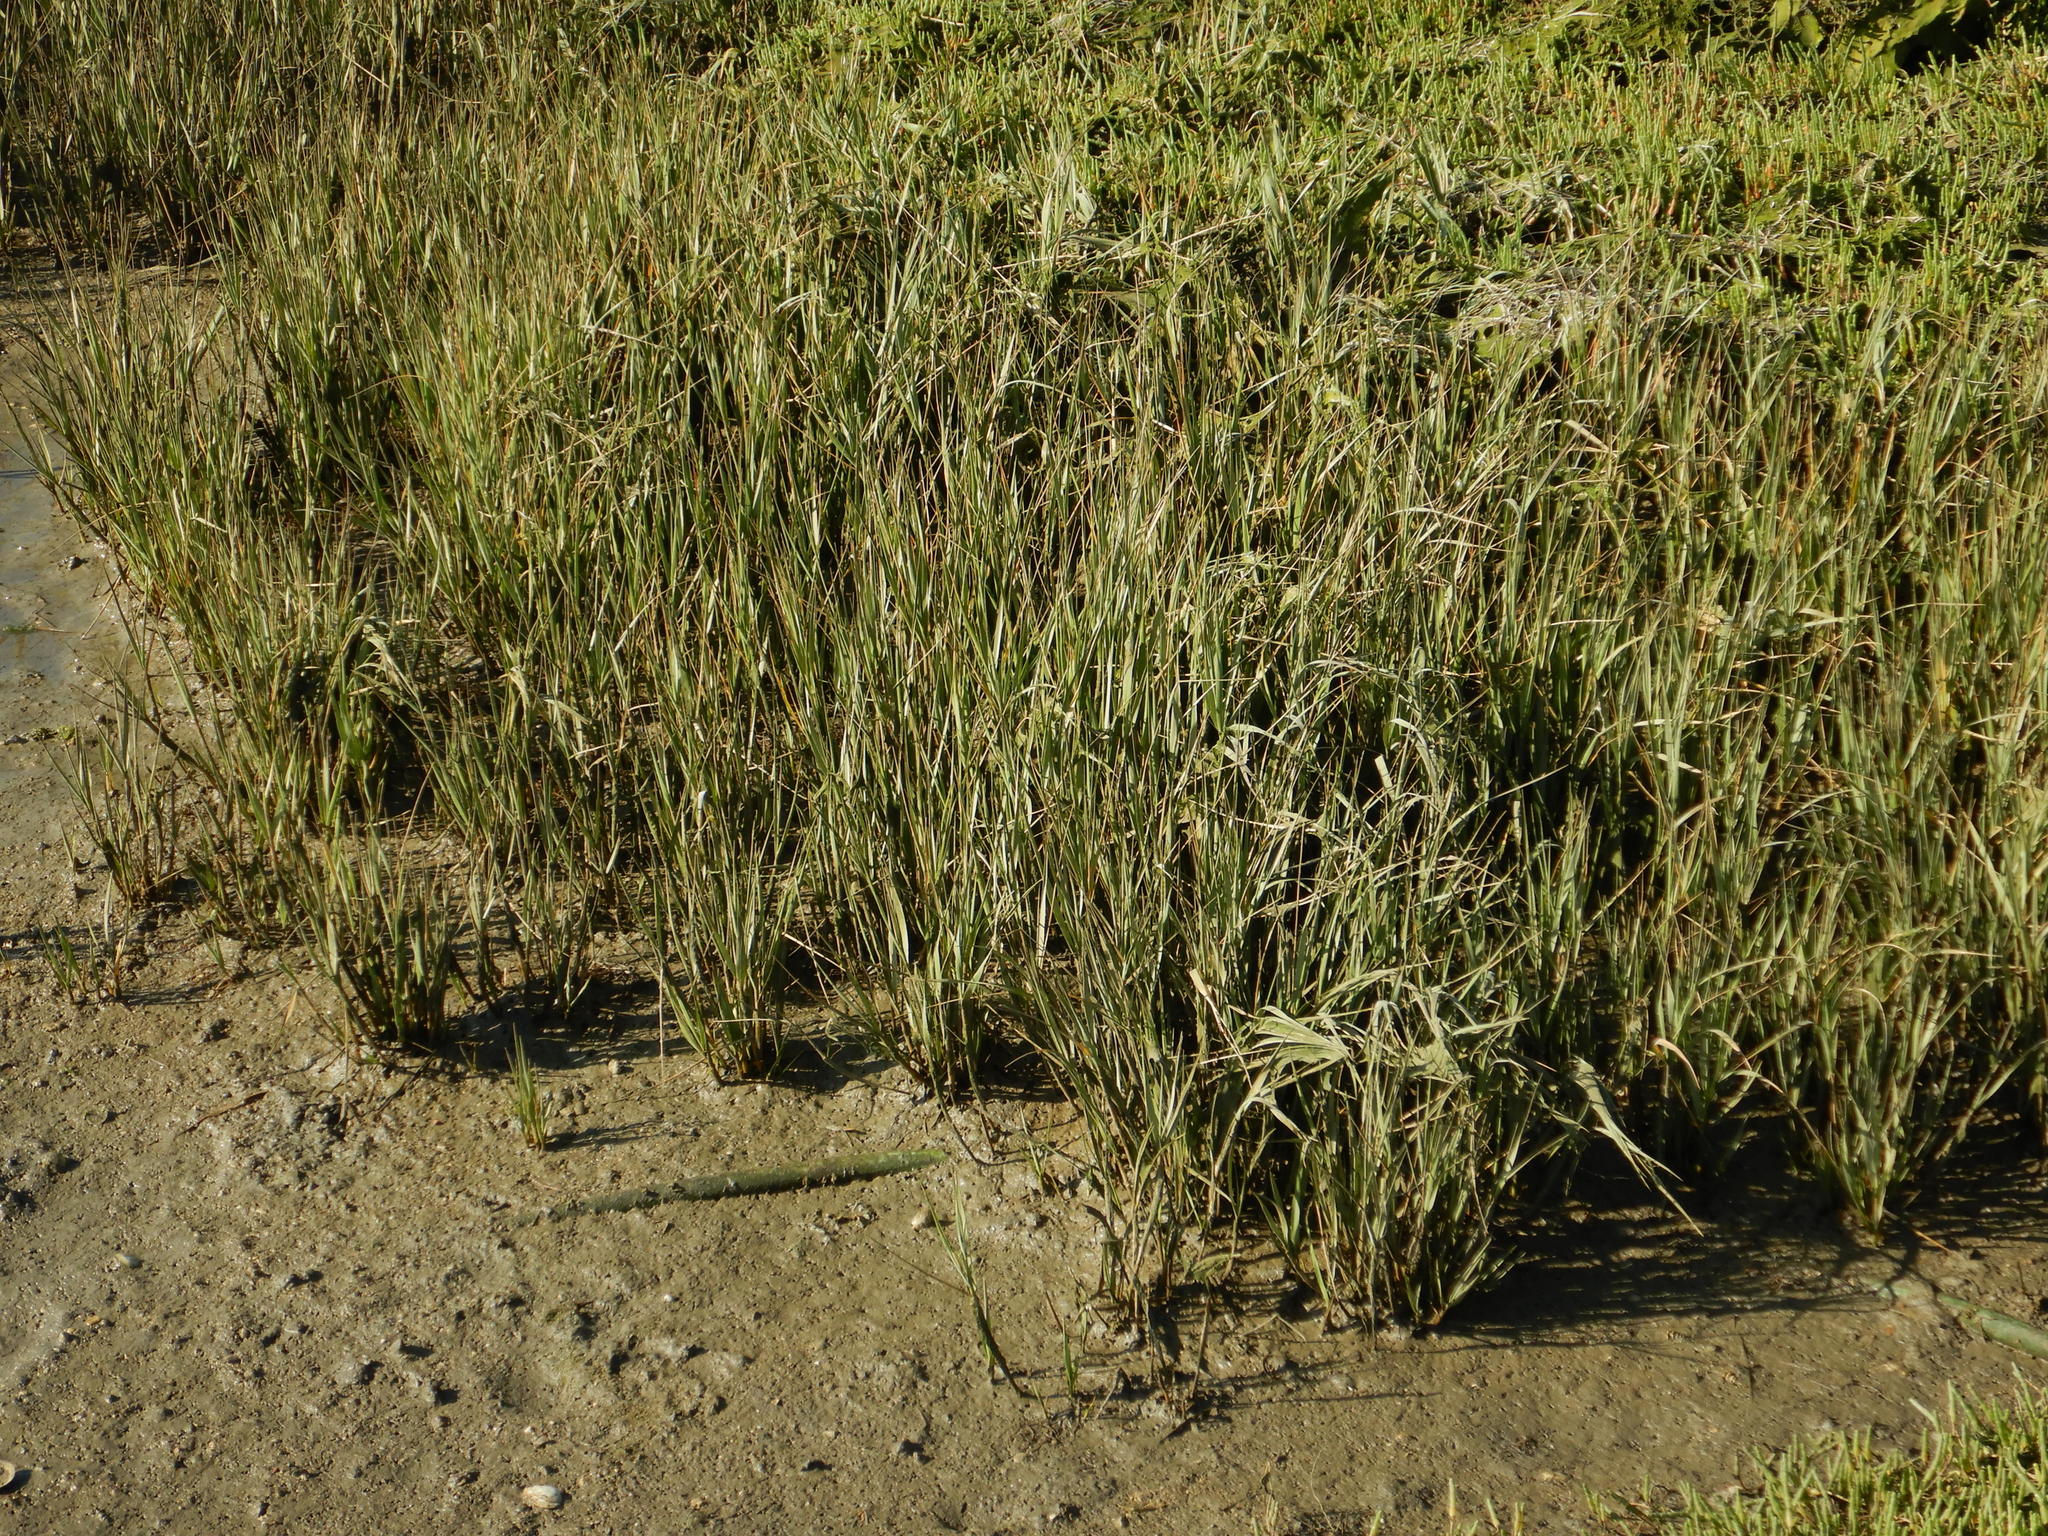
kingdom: Plantae
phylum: Tracheophyta
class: Liliopsida
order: Poales
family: Poaceae
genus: Sporobolus
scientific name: Sporobolus maritimus
